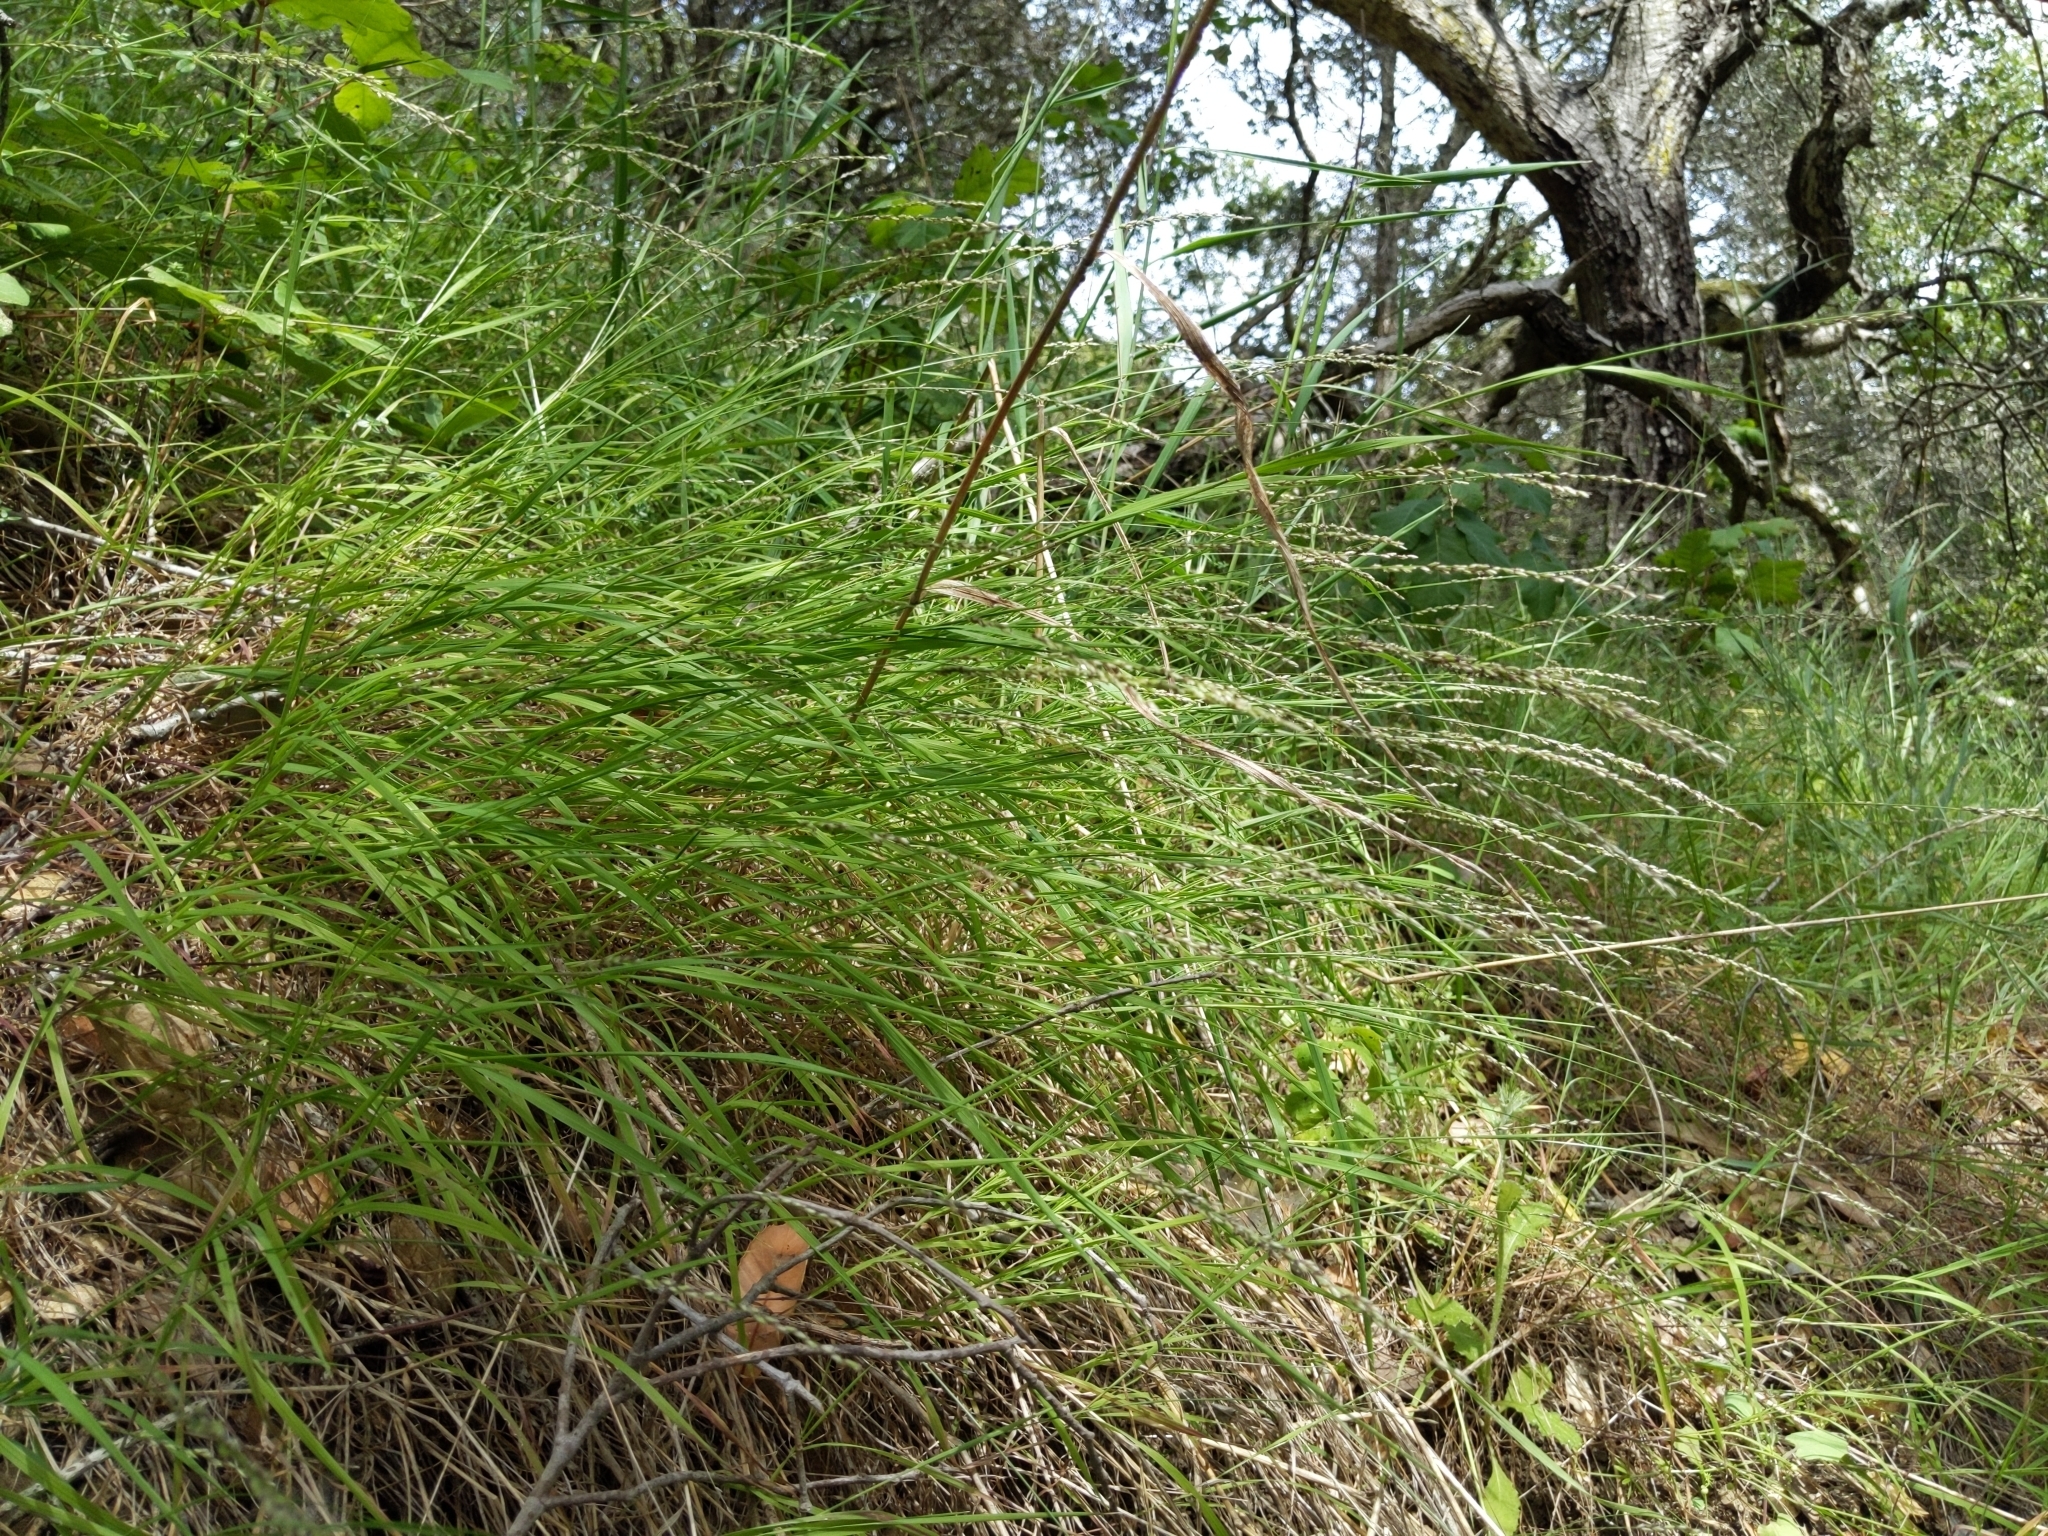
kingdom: Plantae
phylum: Tracheophyta
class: Liliopsida
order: Poales
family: Poaceae
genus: Melica
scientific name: Melica torreyana
